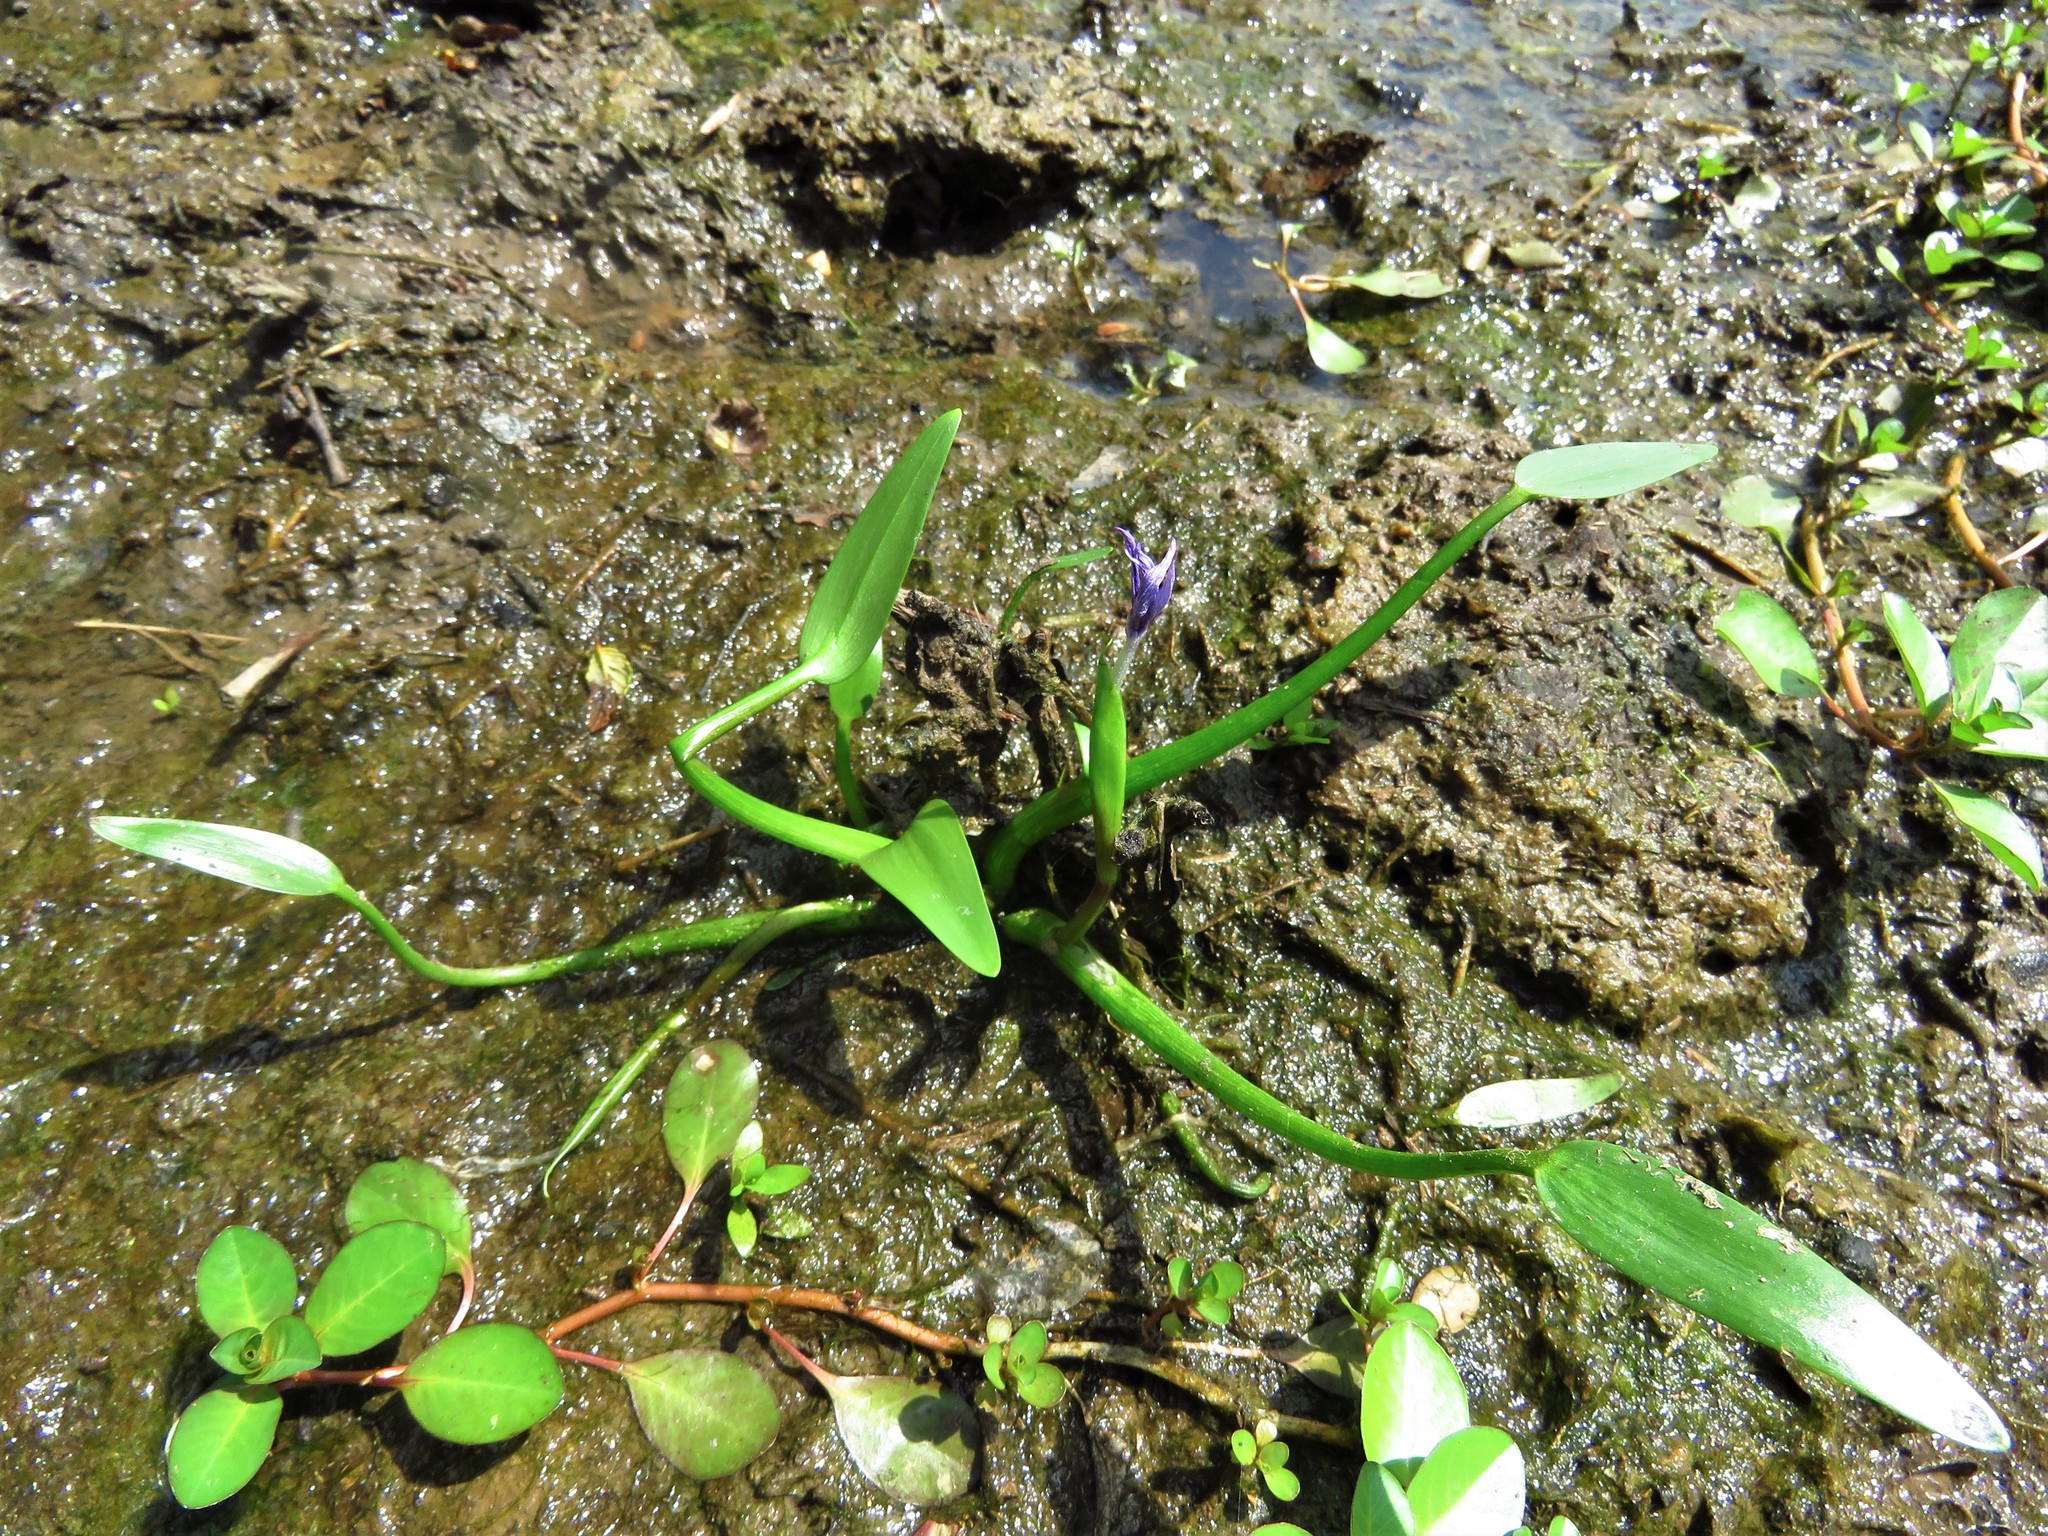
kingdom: Plantae
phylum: Tracheophyta
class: Liliopsida
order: Commelinales
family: Pontederiaceae
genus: Heteranthera
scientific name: Heteranthera limosa
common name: Blue mud-plantain
